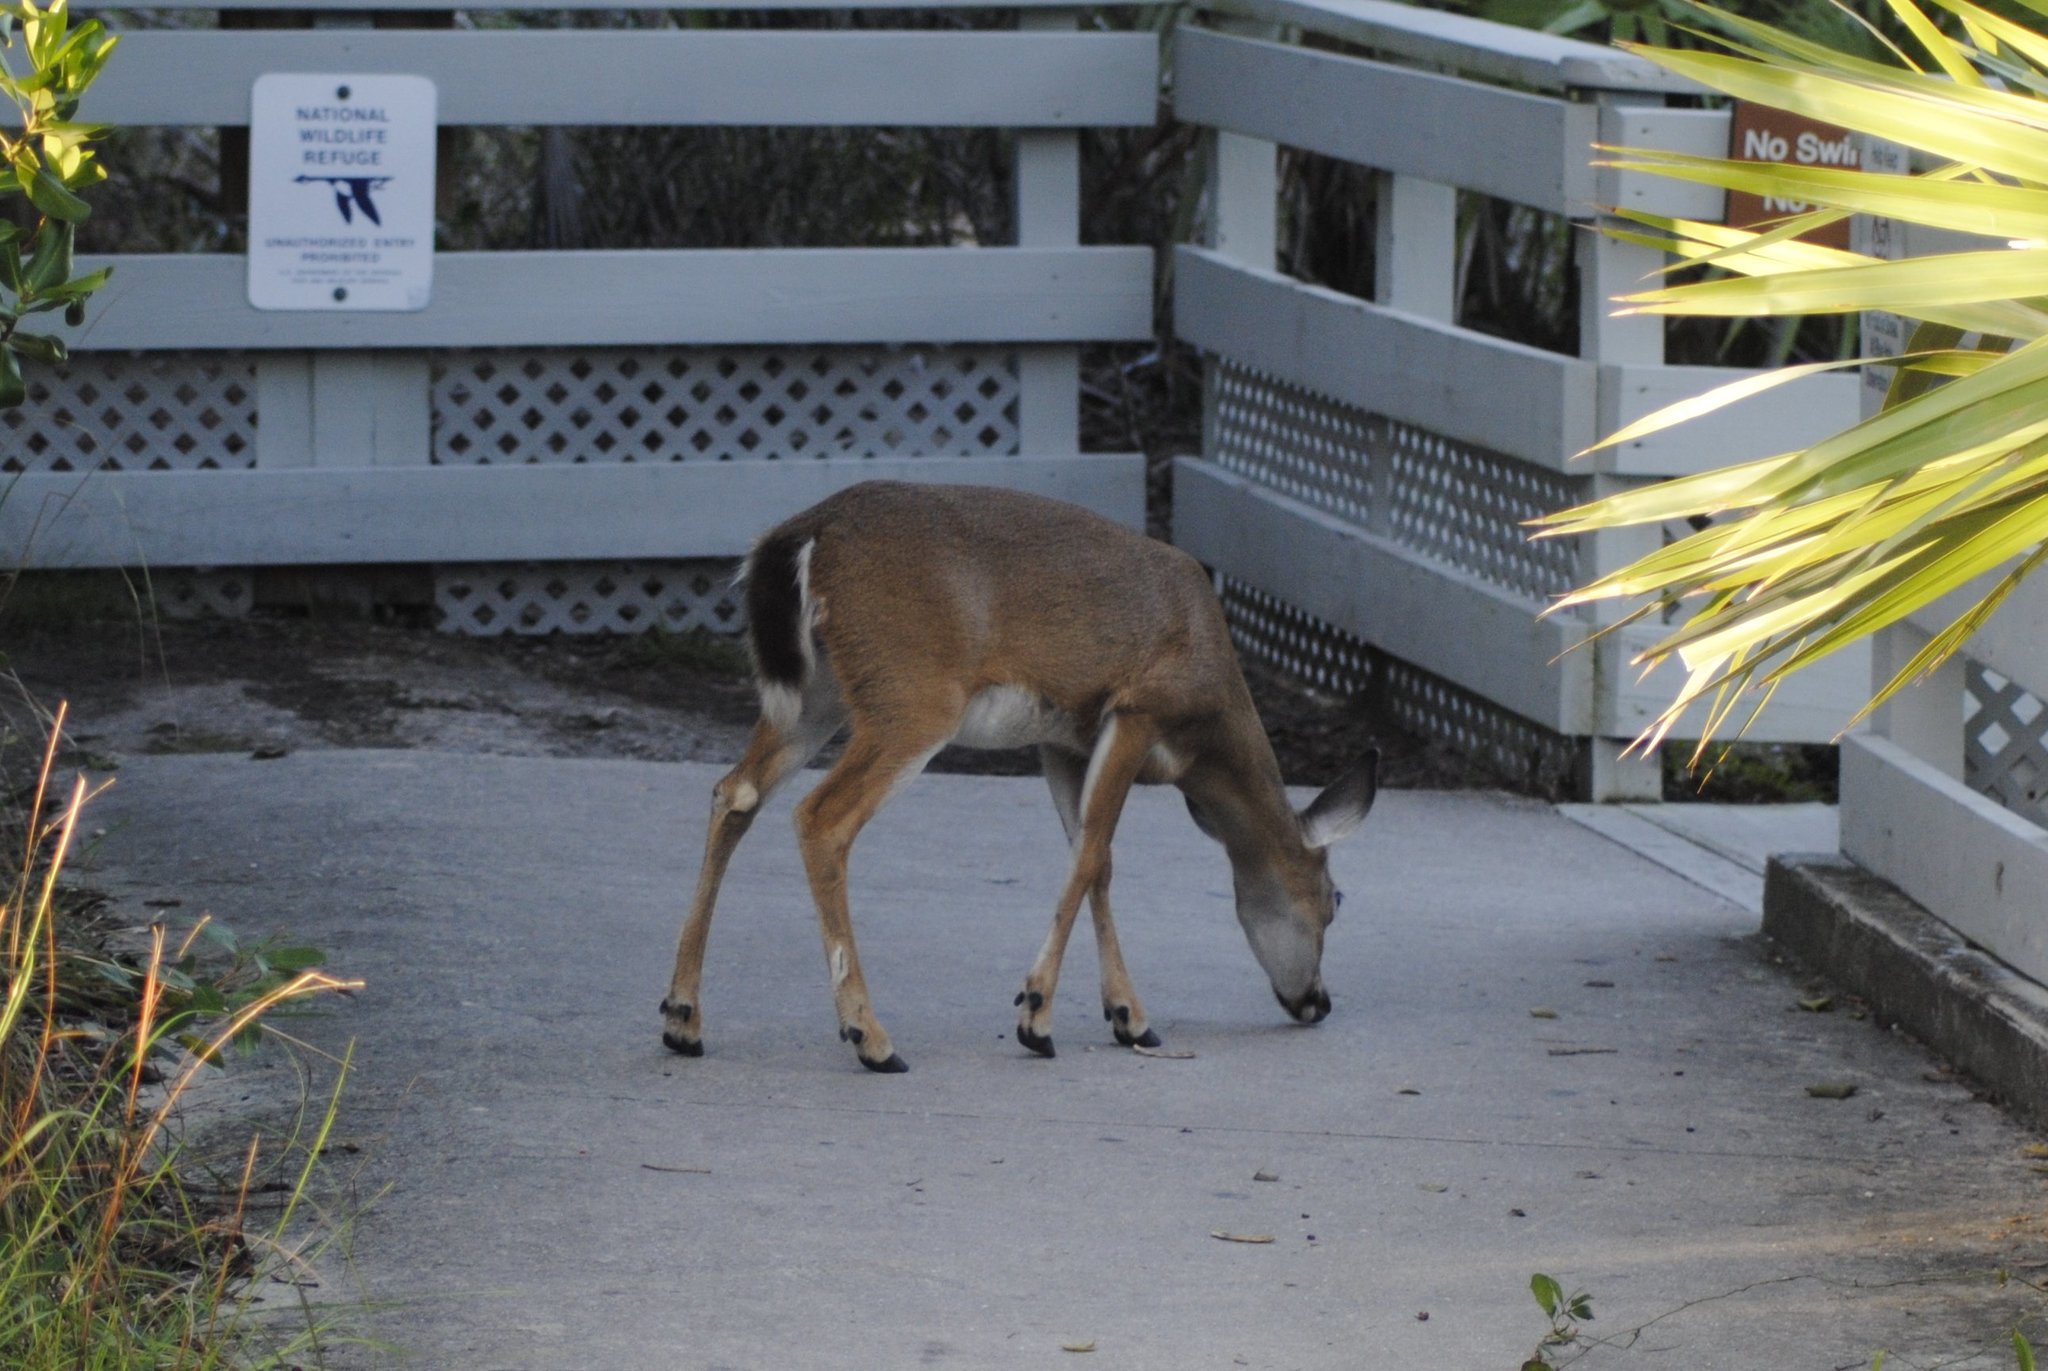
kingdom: Animalia
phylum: Chordata
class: Mammalia
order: Artiodactyla
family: Cervidae
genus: Odocoileus
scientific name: Odocoileus virginianus
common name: White-tailed deer
